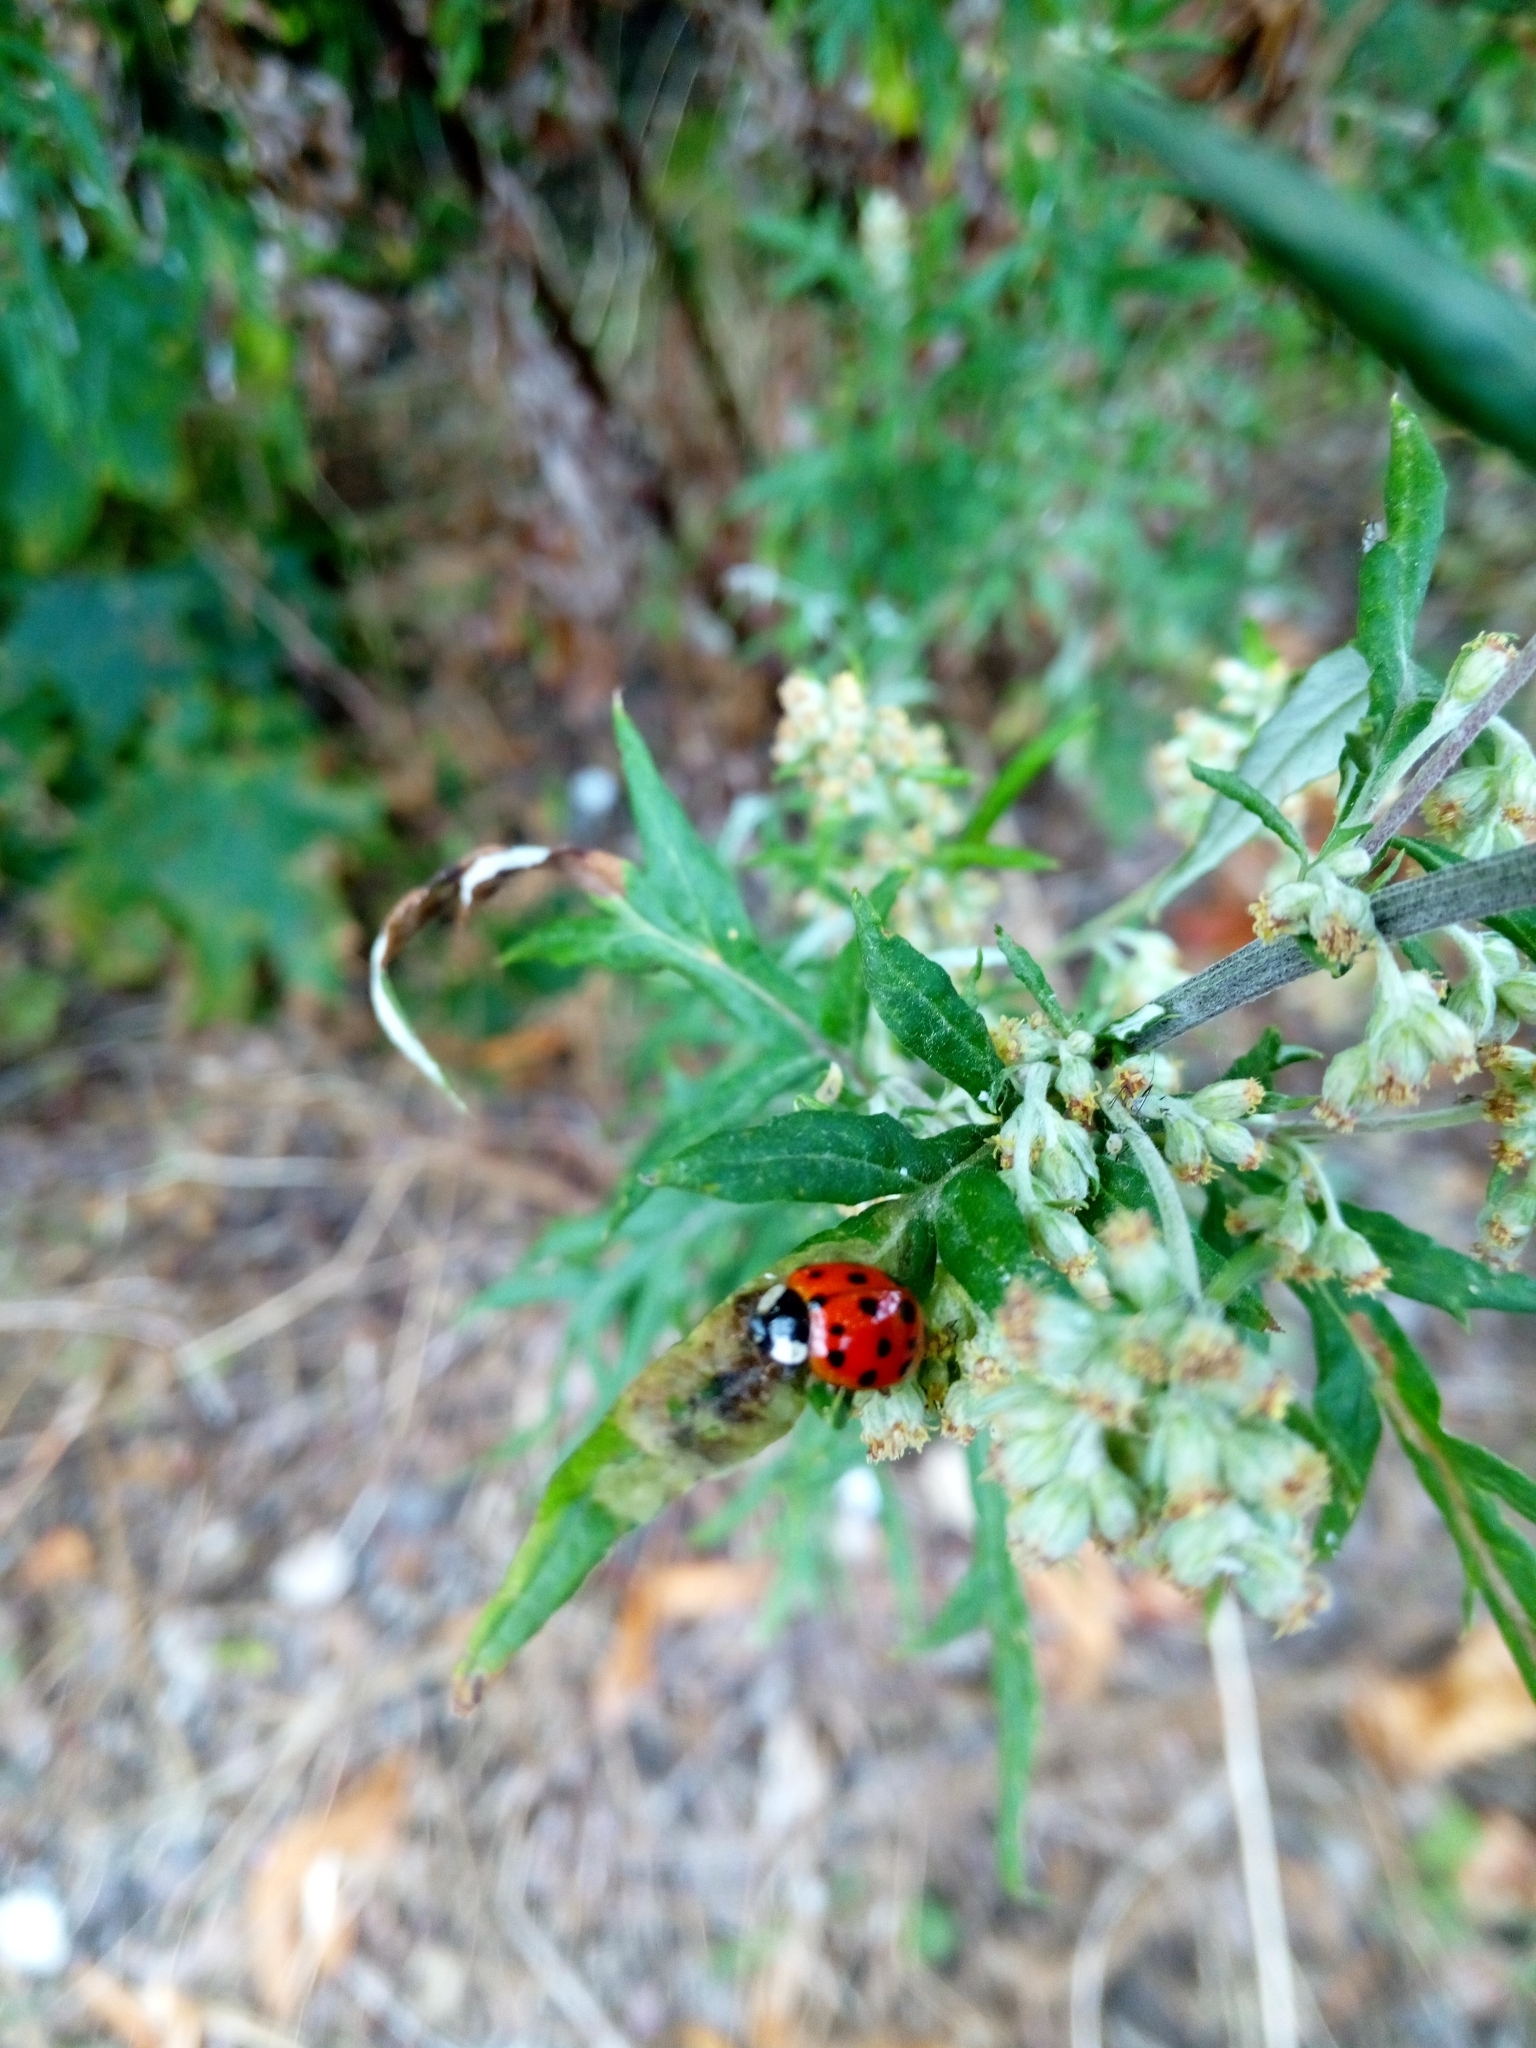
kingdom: Animalia
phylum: Arthropoda
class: Insecta
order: Coleoptera
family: Coccinellidae
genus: Harmonia
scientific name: Harmonia axyridis
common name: Harlequin ladybird
